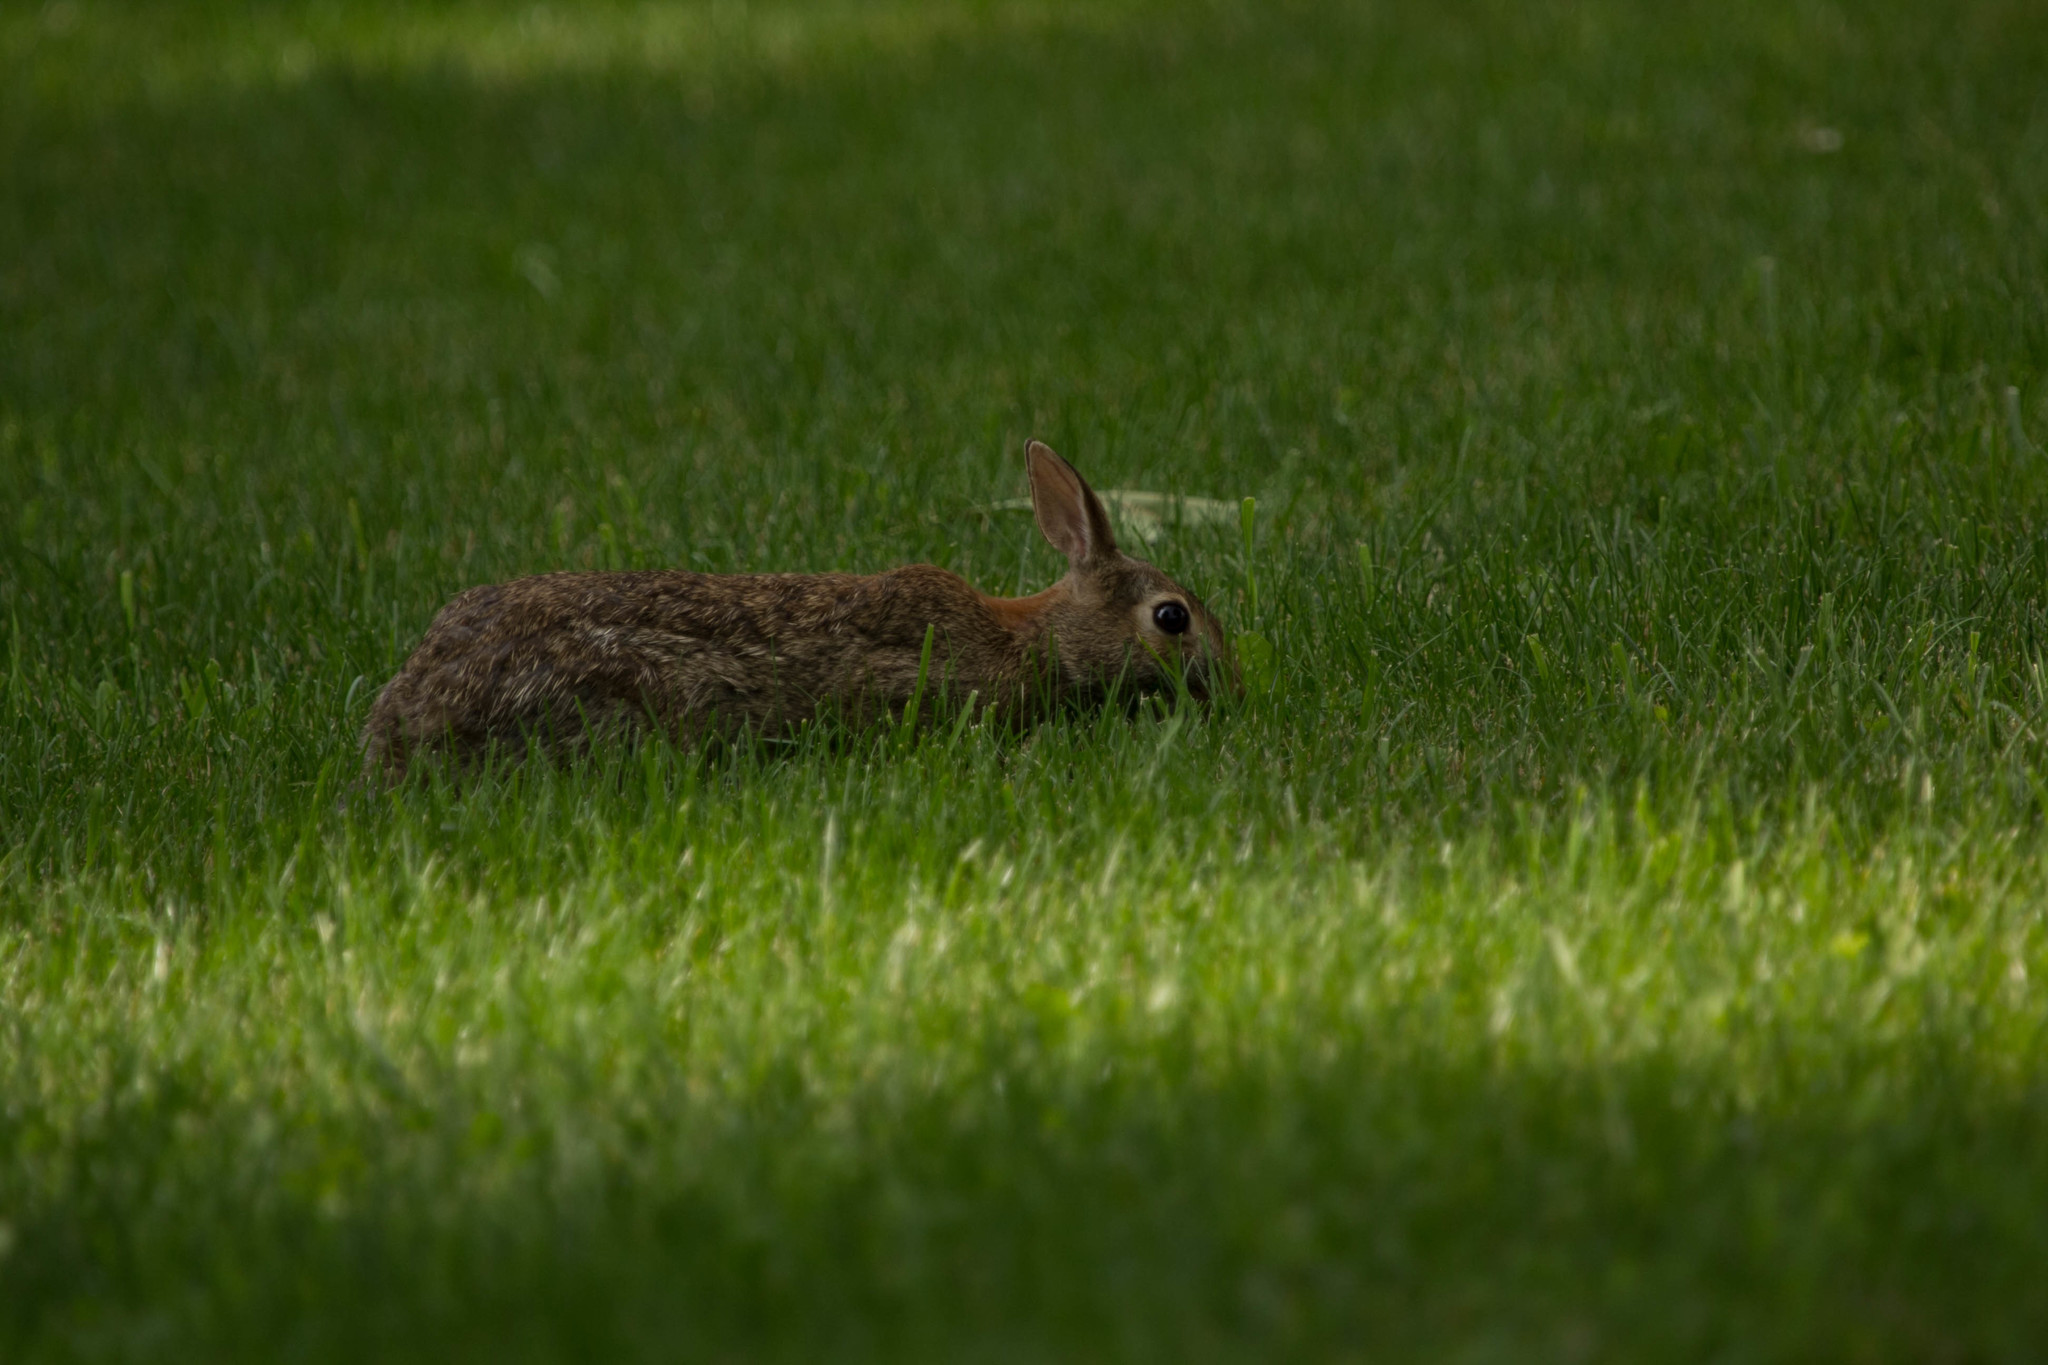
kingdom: Animalia
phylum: Chordata
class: Mammalia
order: Lagomorpha
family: Leporidae
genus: Sylvilagus
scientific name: Sylvilagus floridanus
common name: Eastern cottontail
